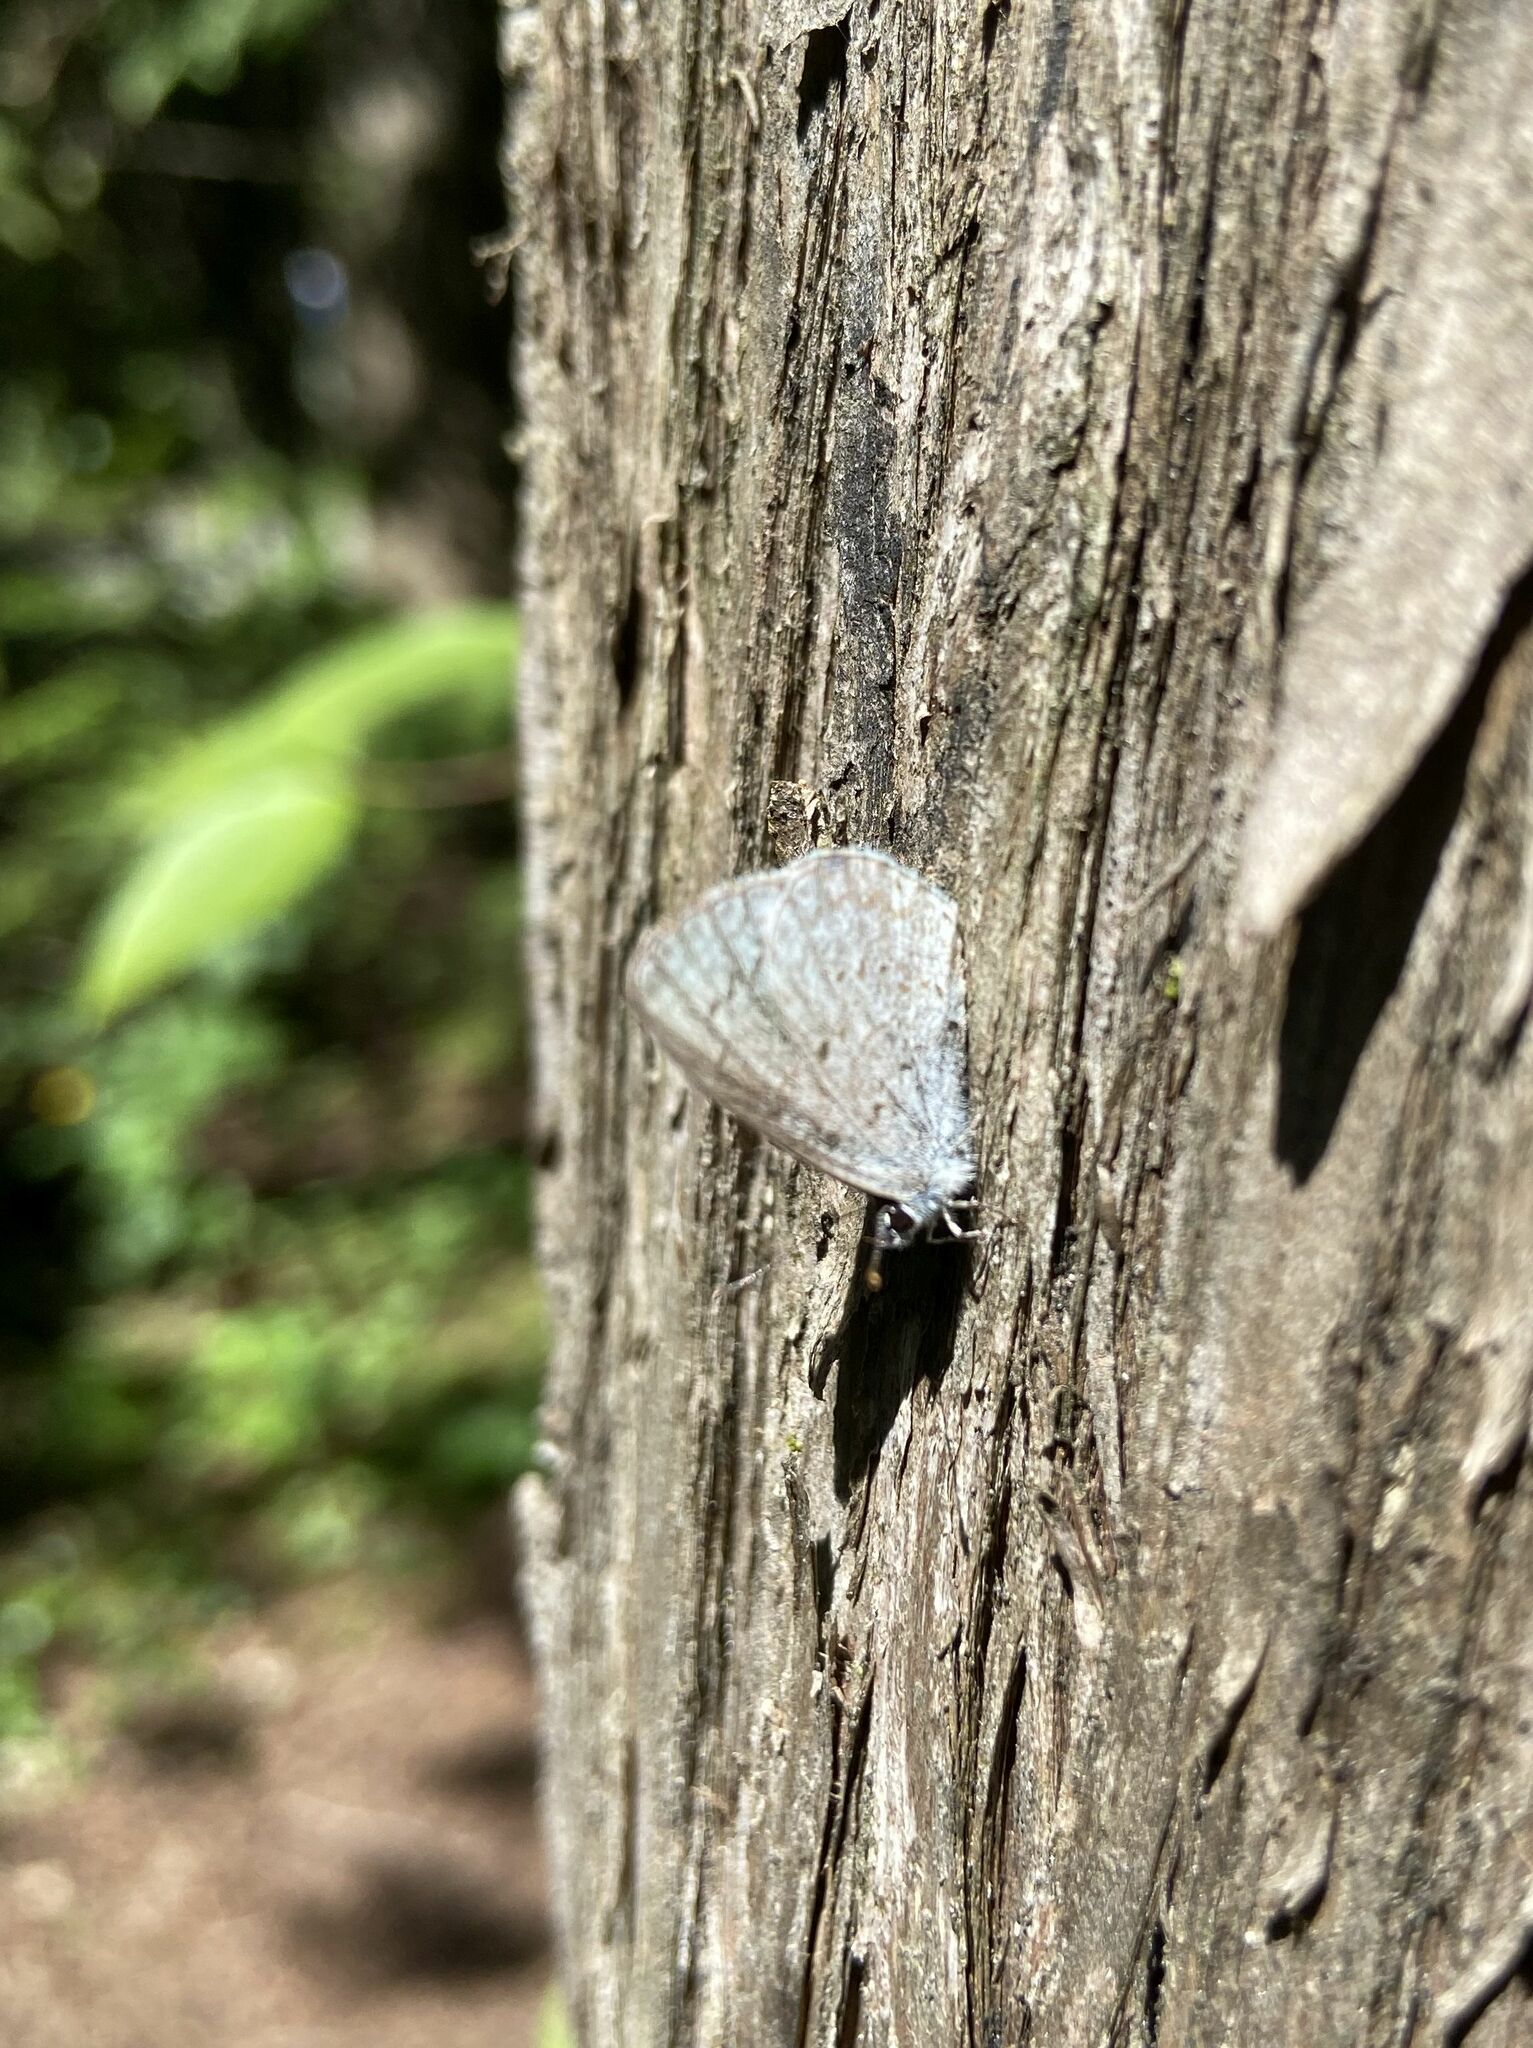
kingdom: Animalia
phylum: Arthropoda
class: Insecta
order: Lepidoptera
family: Lycaenidae
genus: Celastrina
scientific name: Celastrina lucia
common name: Lucia azure
